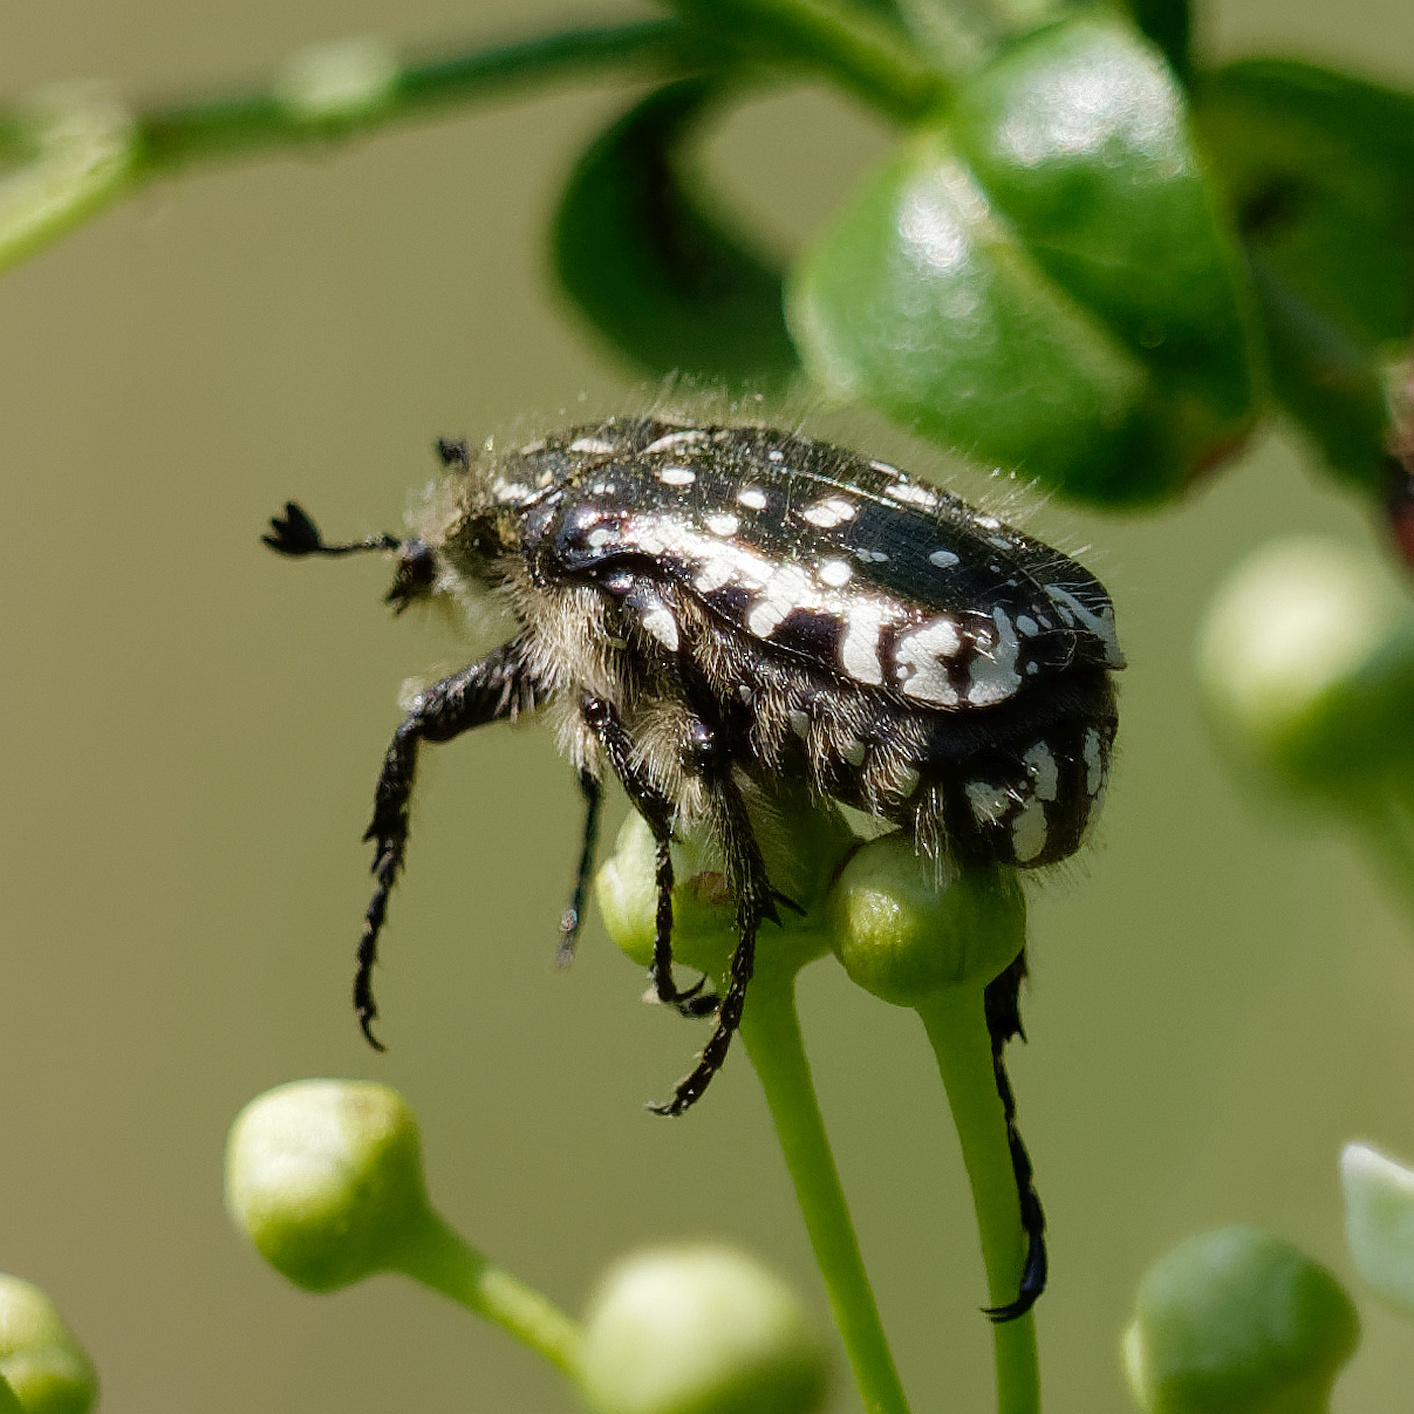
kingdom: Animalia
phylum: Arthropoda
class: Insecta
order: Coleoptera
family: Scarabaeidae
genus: Oxythyrea
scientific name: Oxythyrea funesta
